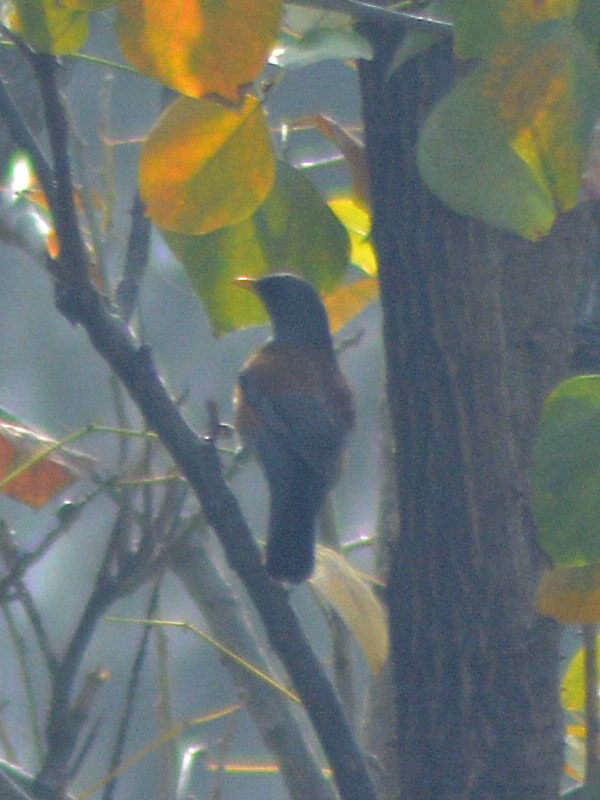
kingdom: Animalia
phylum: Chordata
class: Aves
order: Passeriformes
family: Turdidae
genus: Turdus
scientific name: Turdus rufopalliatus
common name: Rufous-backed robin
